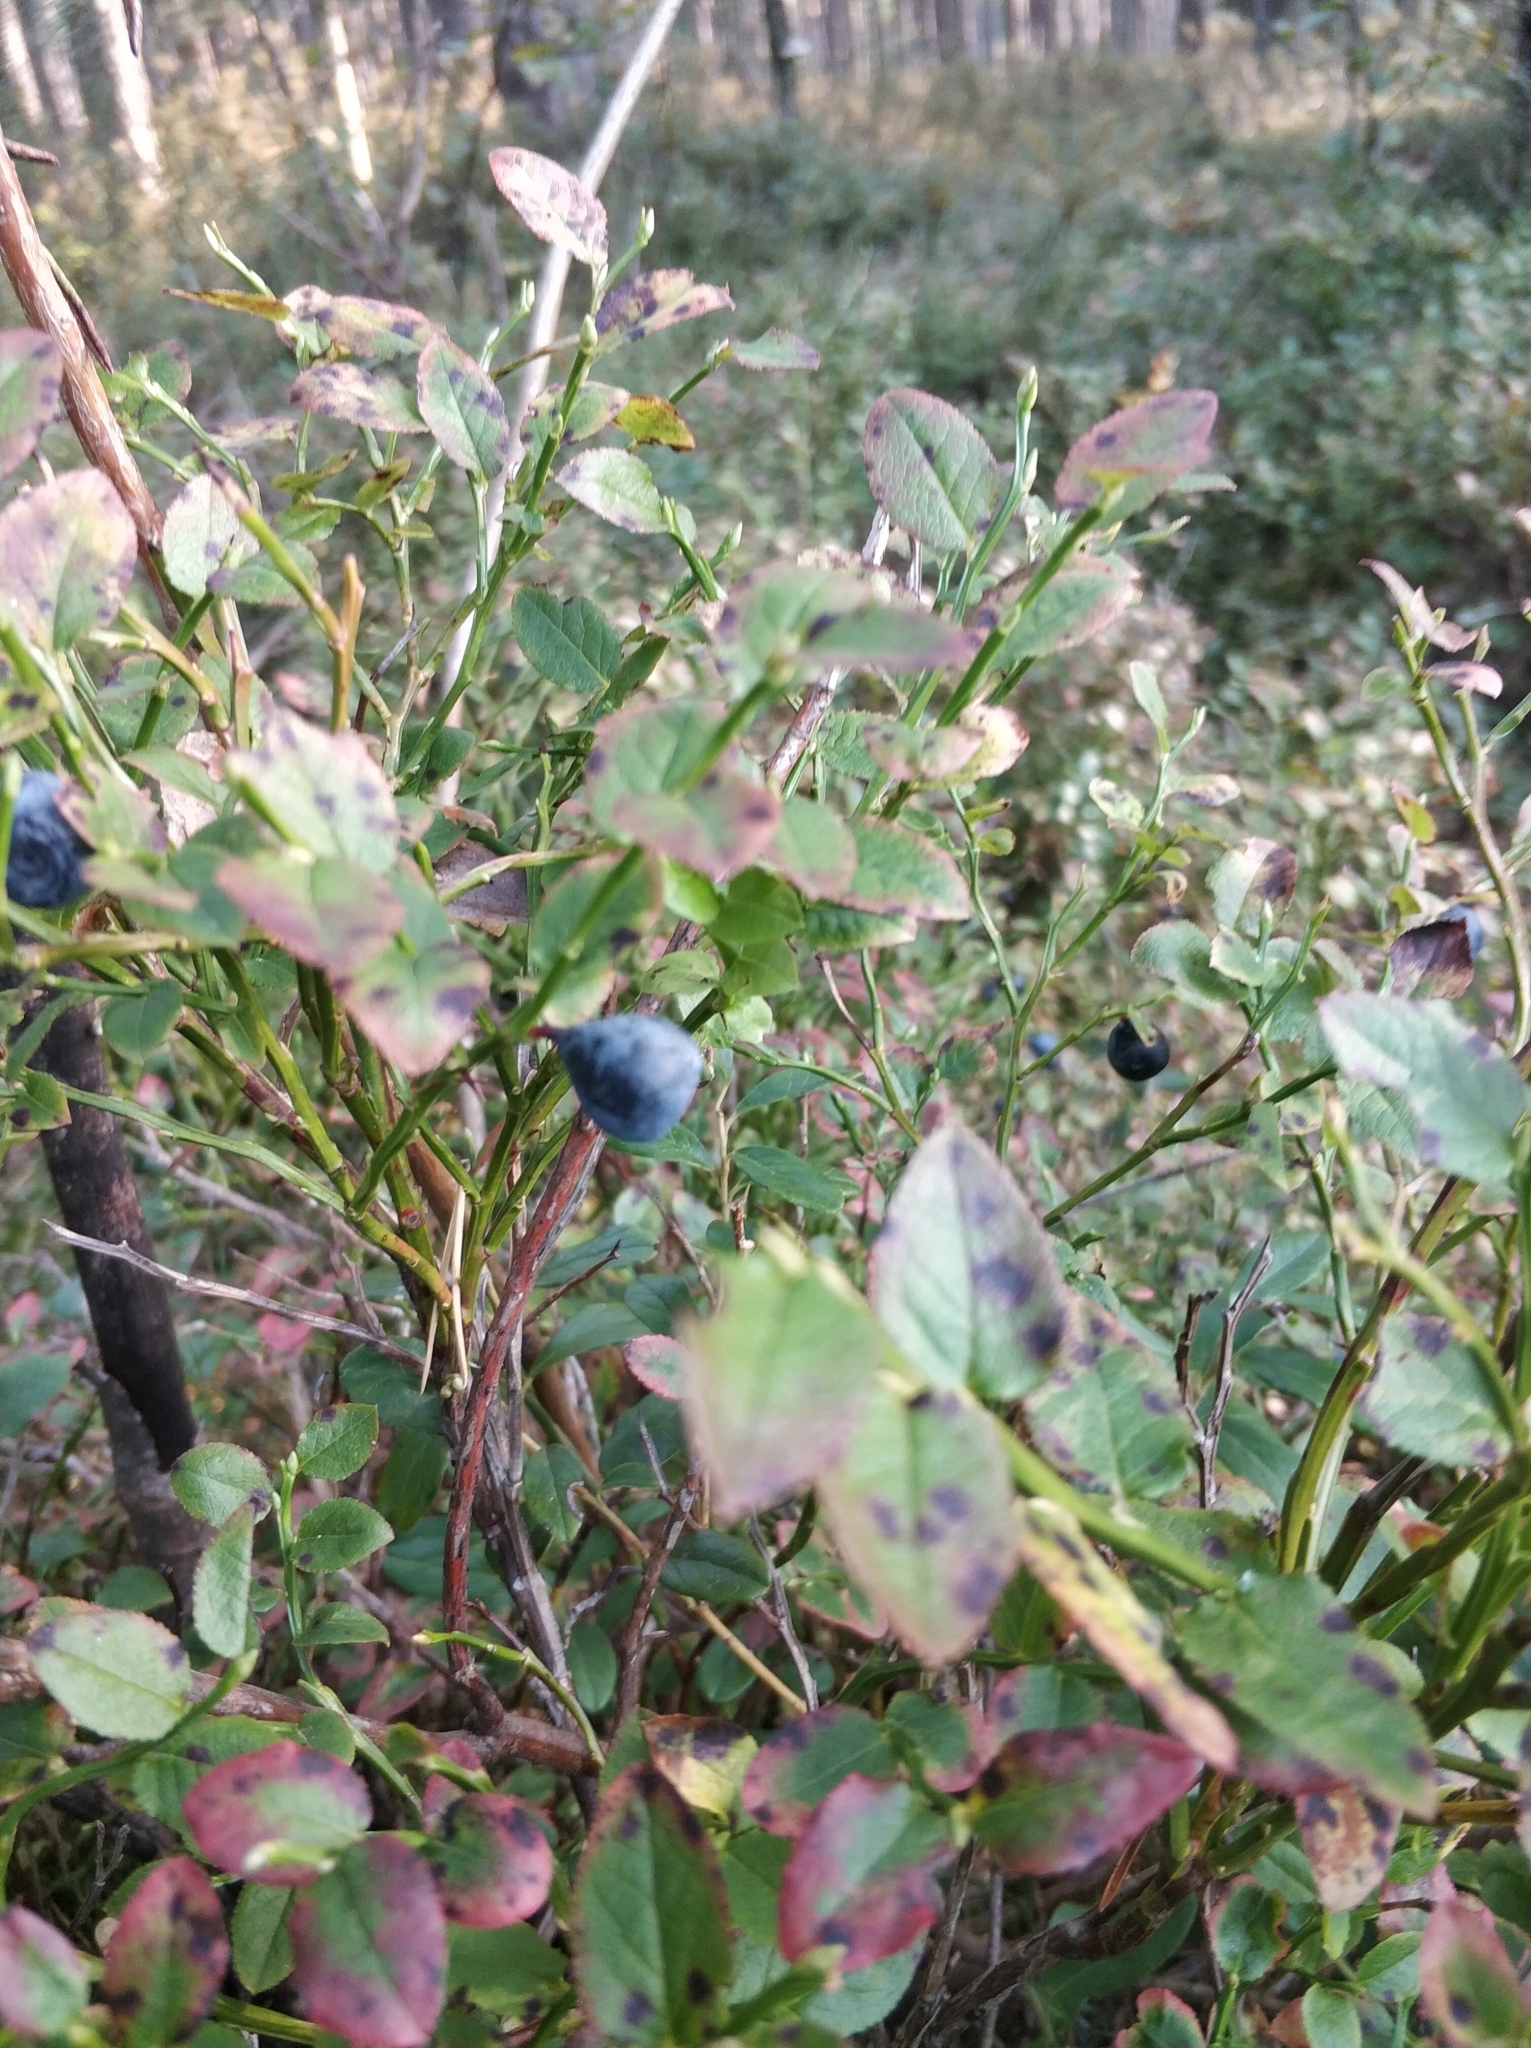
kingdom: Plantae
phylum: Tracheophyta
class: Magnoliopsida
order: Ericales
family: Ericaceae
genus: Vaccinium
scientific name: Vaccinium myrtillus
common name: Bilberry
